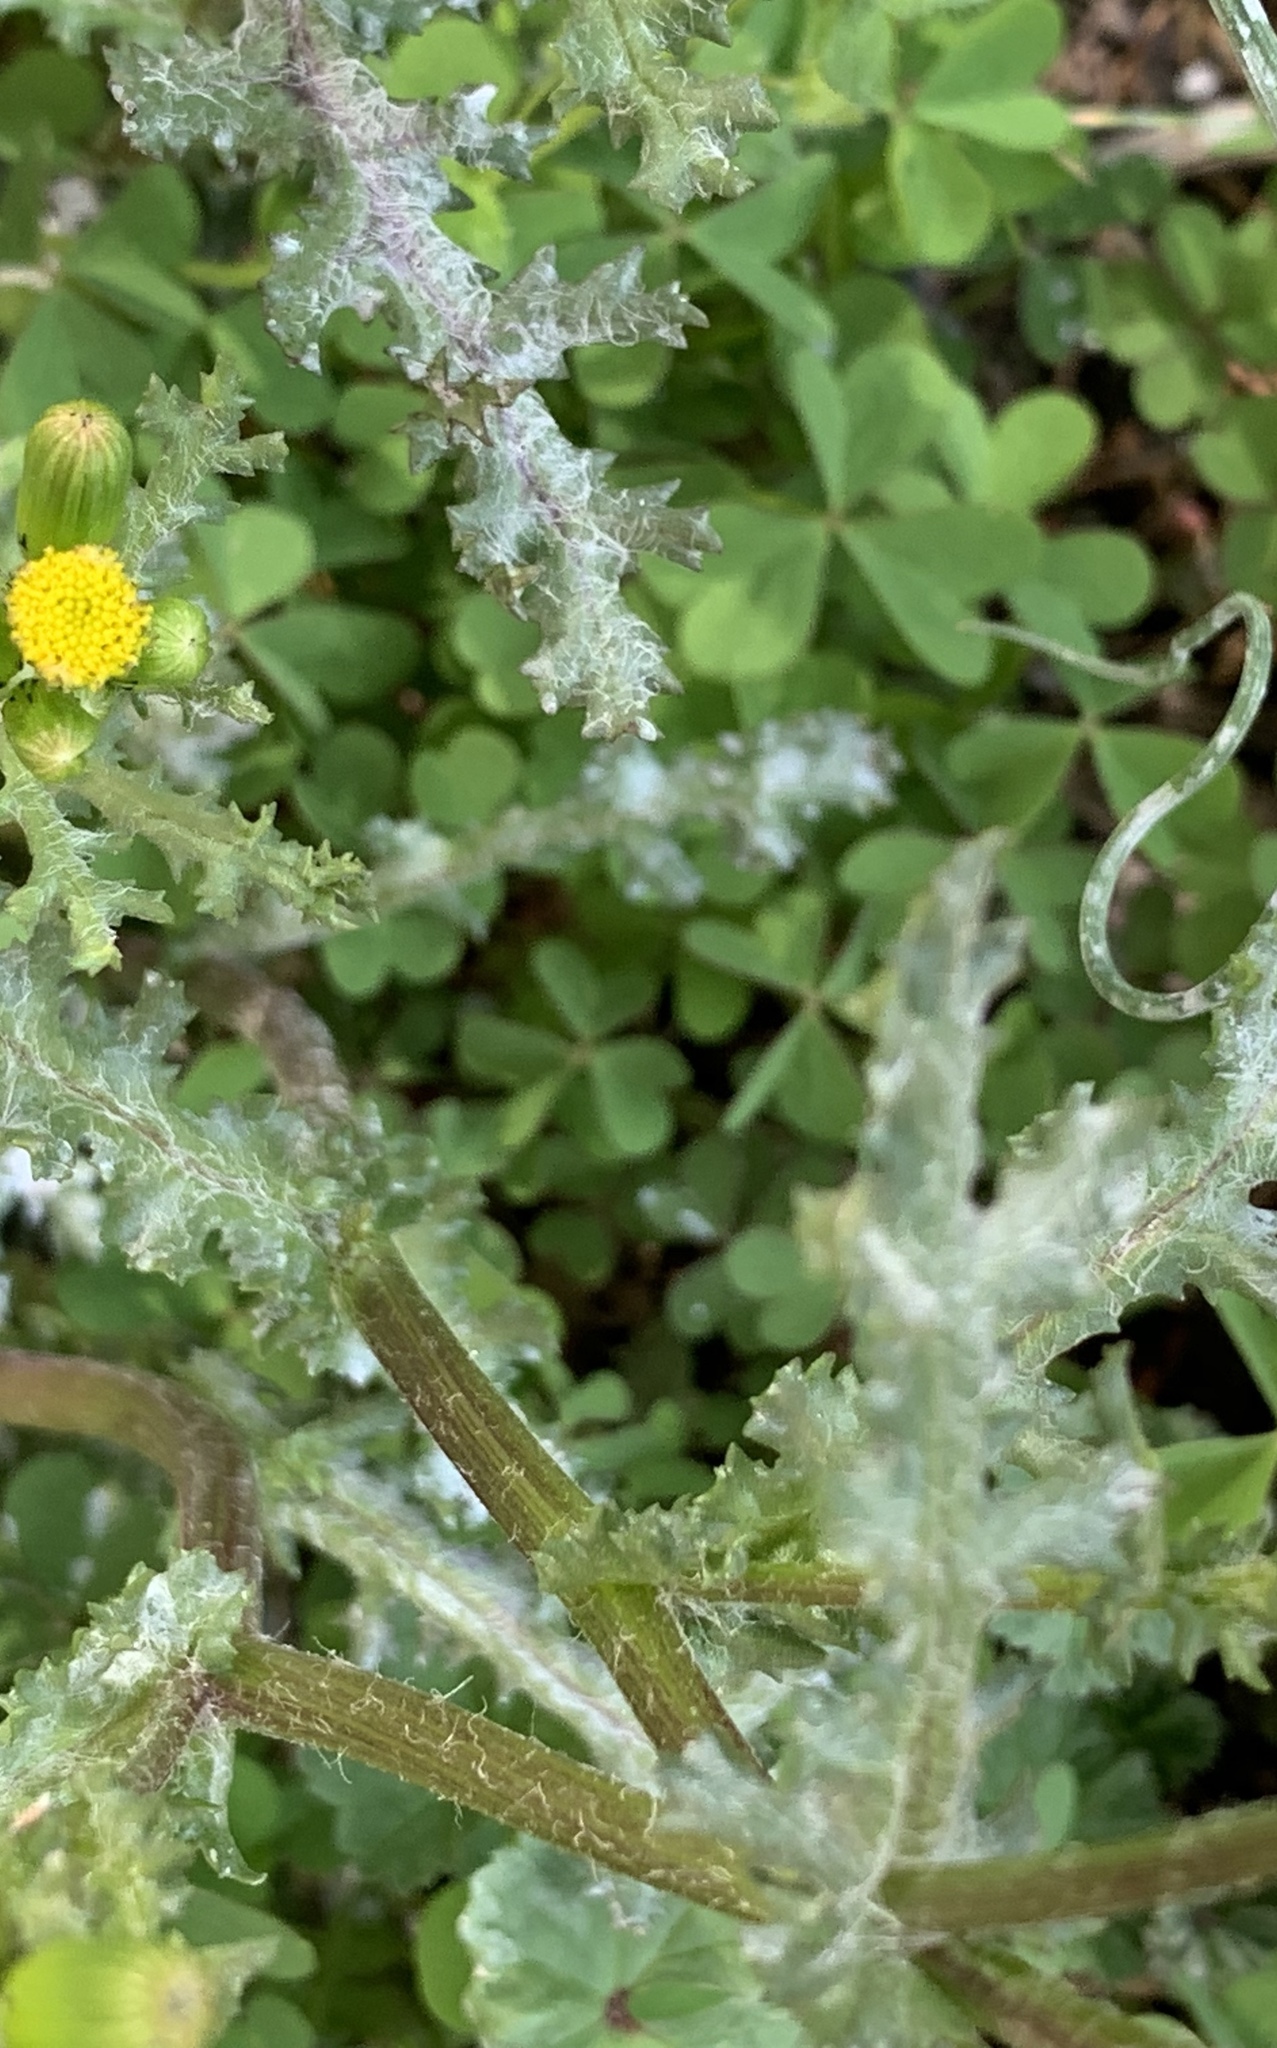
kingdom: Plantae
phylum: Tracheophyta
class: Magnoliopsida
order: Asterales
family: Asteraceae
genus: Senecio
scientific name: Senecio vulgaris
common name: Old-man-in-the-spring
